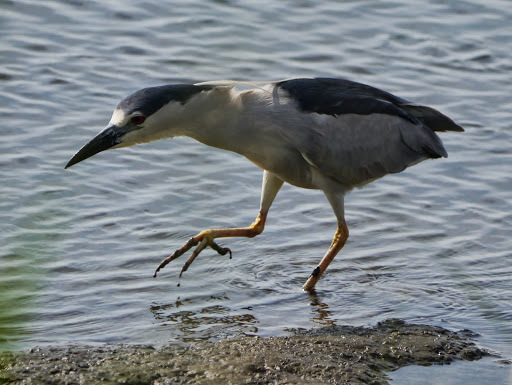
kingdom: Animalia
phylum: Chordata
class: Aves
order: Pelecaniformes
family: Ardeidae
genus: Nycticorax
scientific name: Nycticorax nycticorax
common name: Black-crowned night heron
